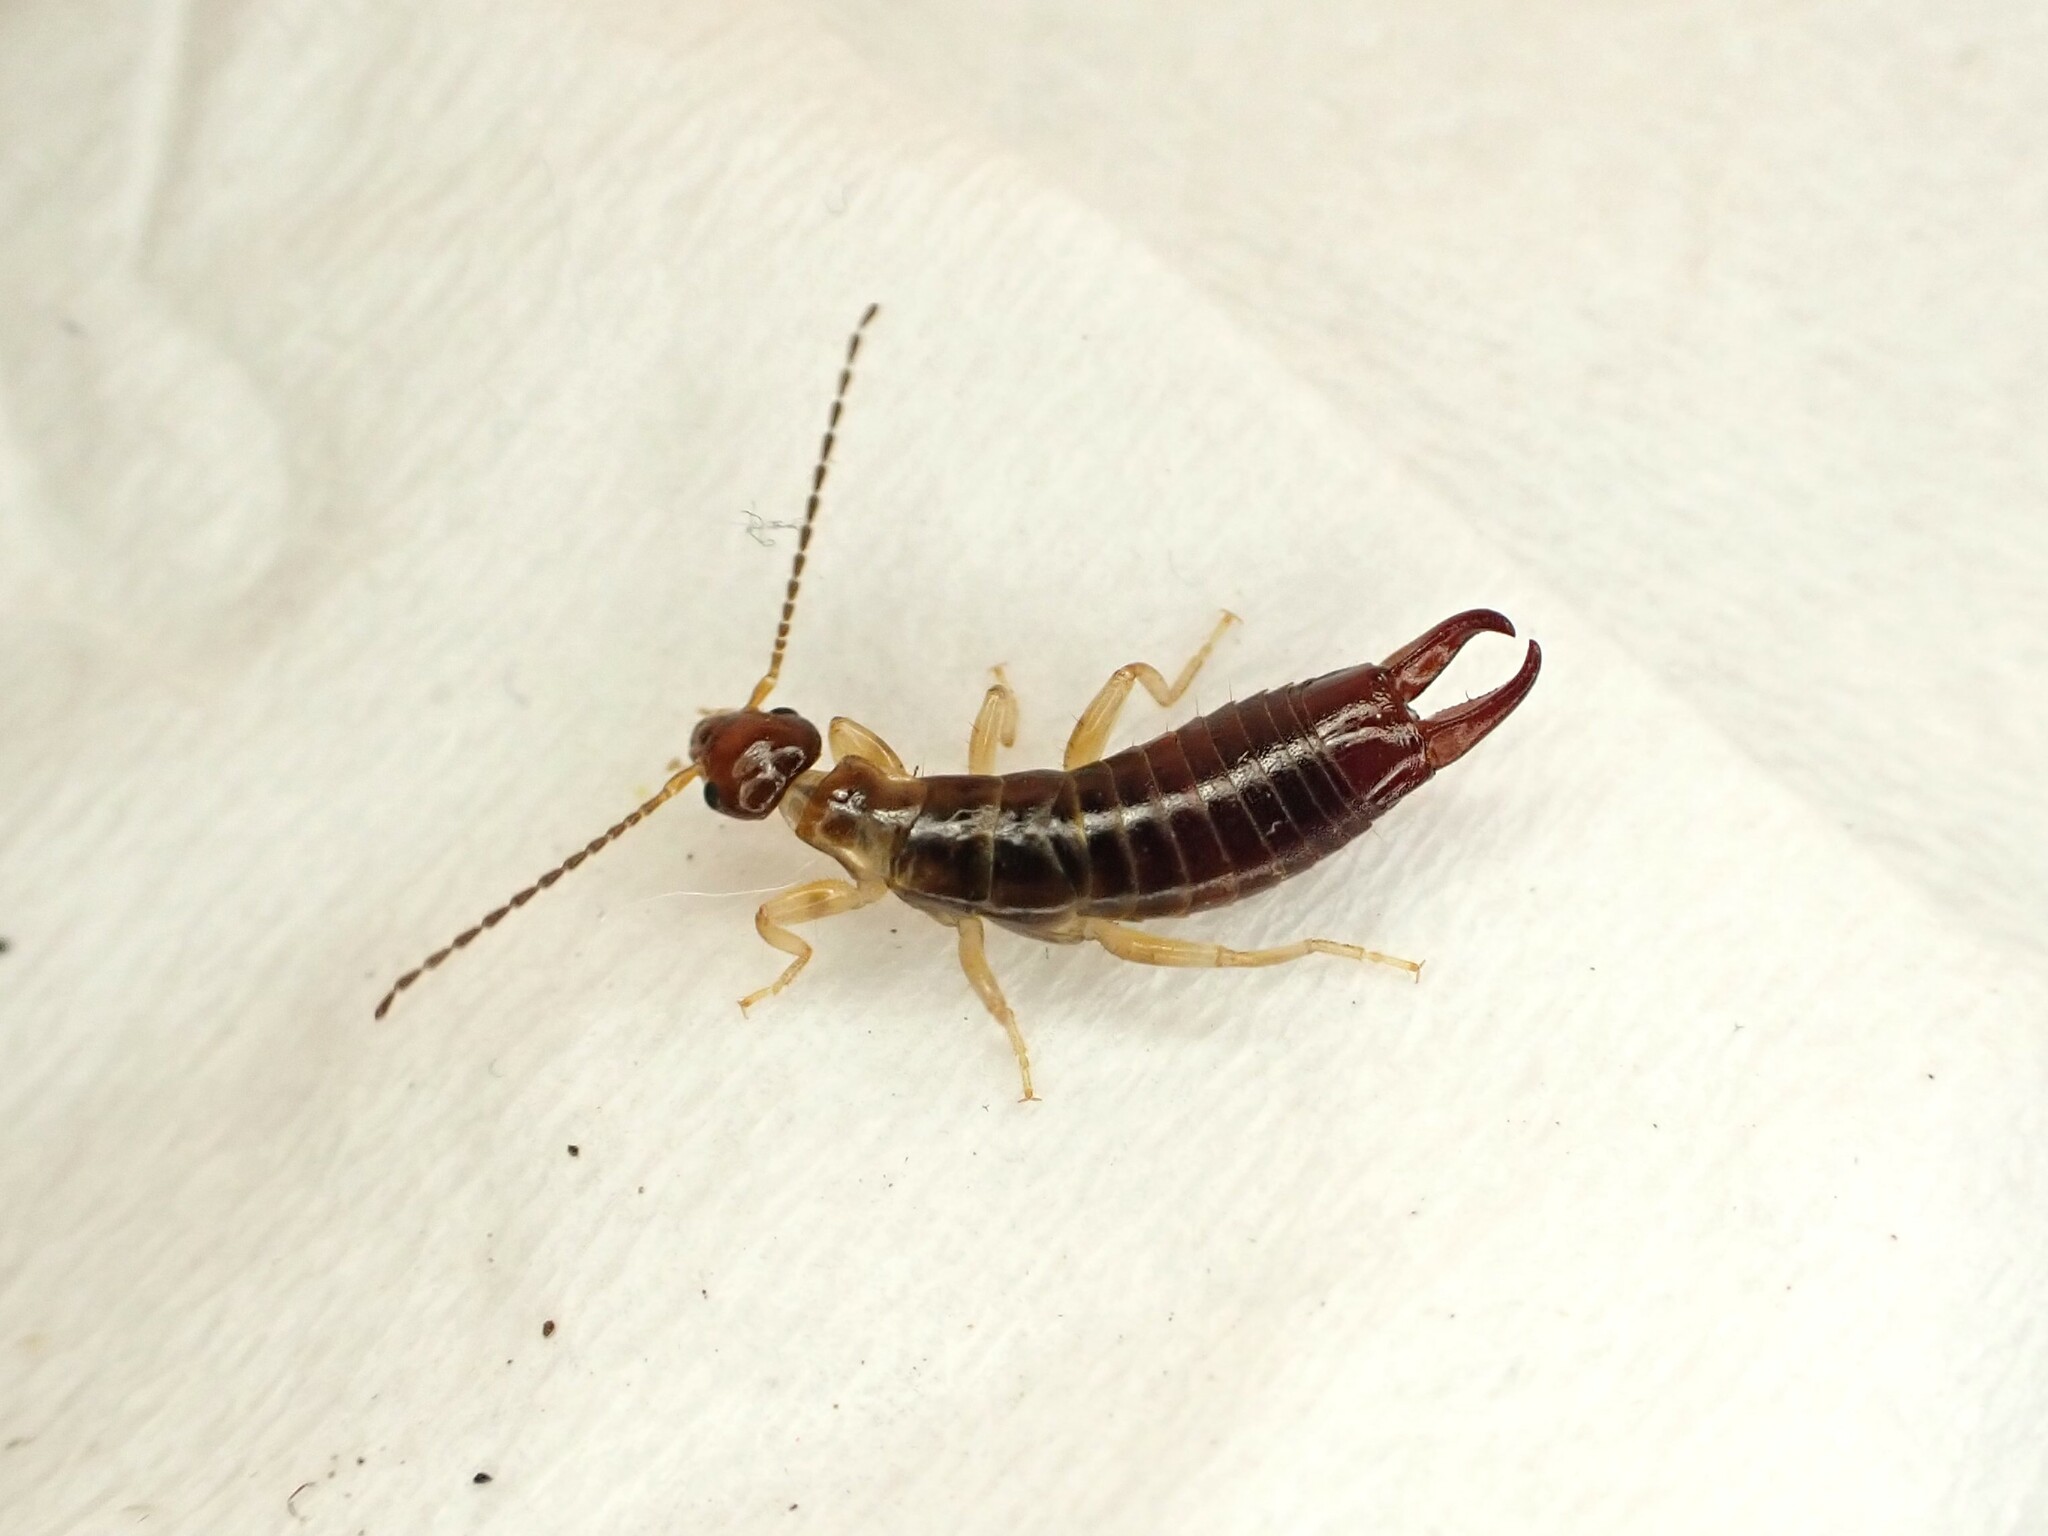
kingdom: Animalia
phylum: Arthropoda
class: Insecta
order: Dermaptera
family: Anisolabididae
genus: Euborellia
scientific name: Euborellia annulipes
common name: Ringlegged earwig
